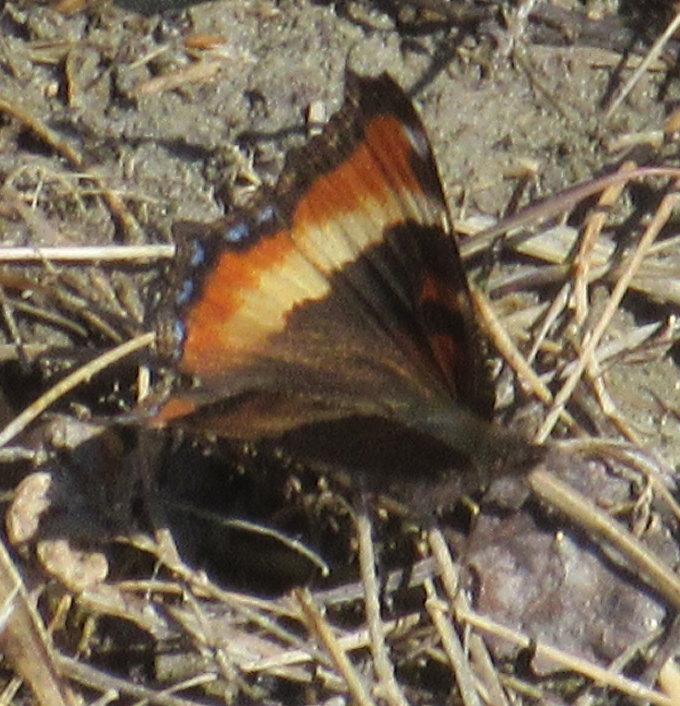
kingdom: Animalia
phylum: Arthropoda
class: Insecta
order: Lepidoptera
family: Nymphalidae
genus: Aglais
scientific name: Aglais milberti
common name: Milbert's tortoiseshell
